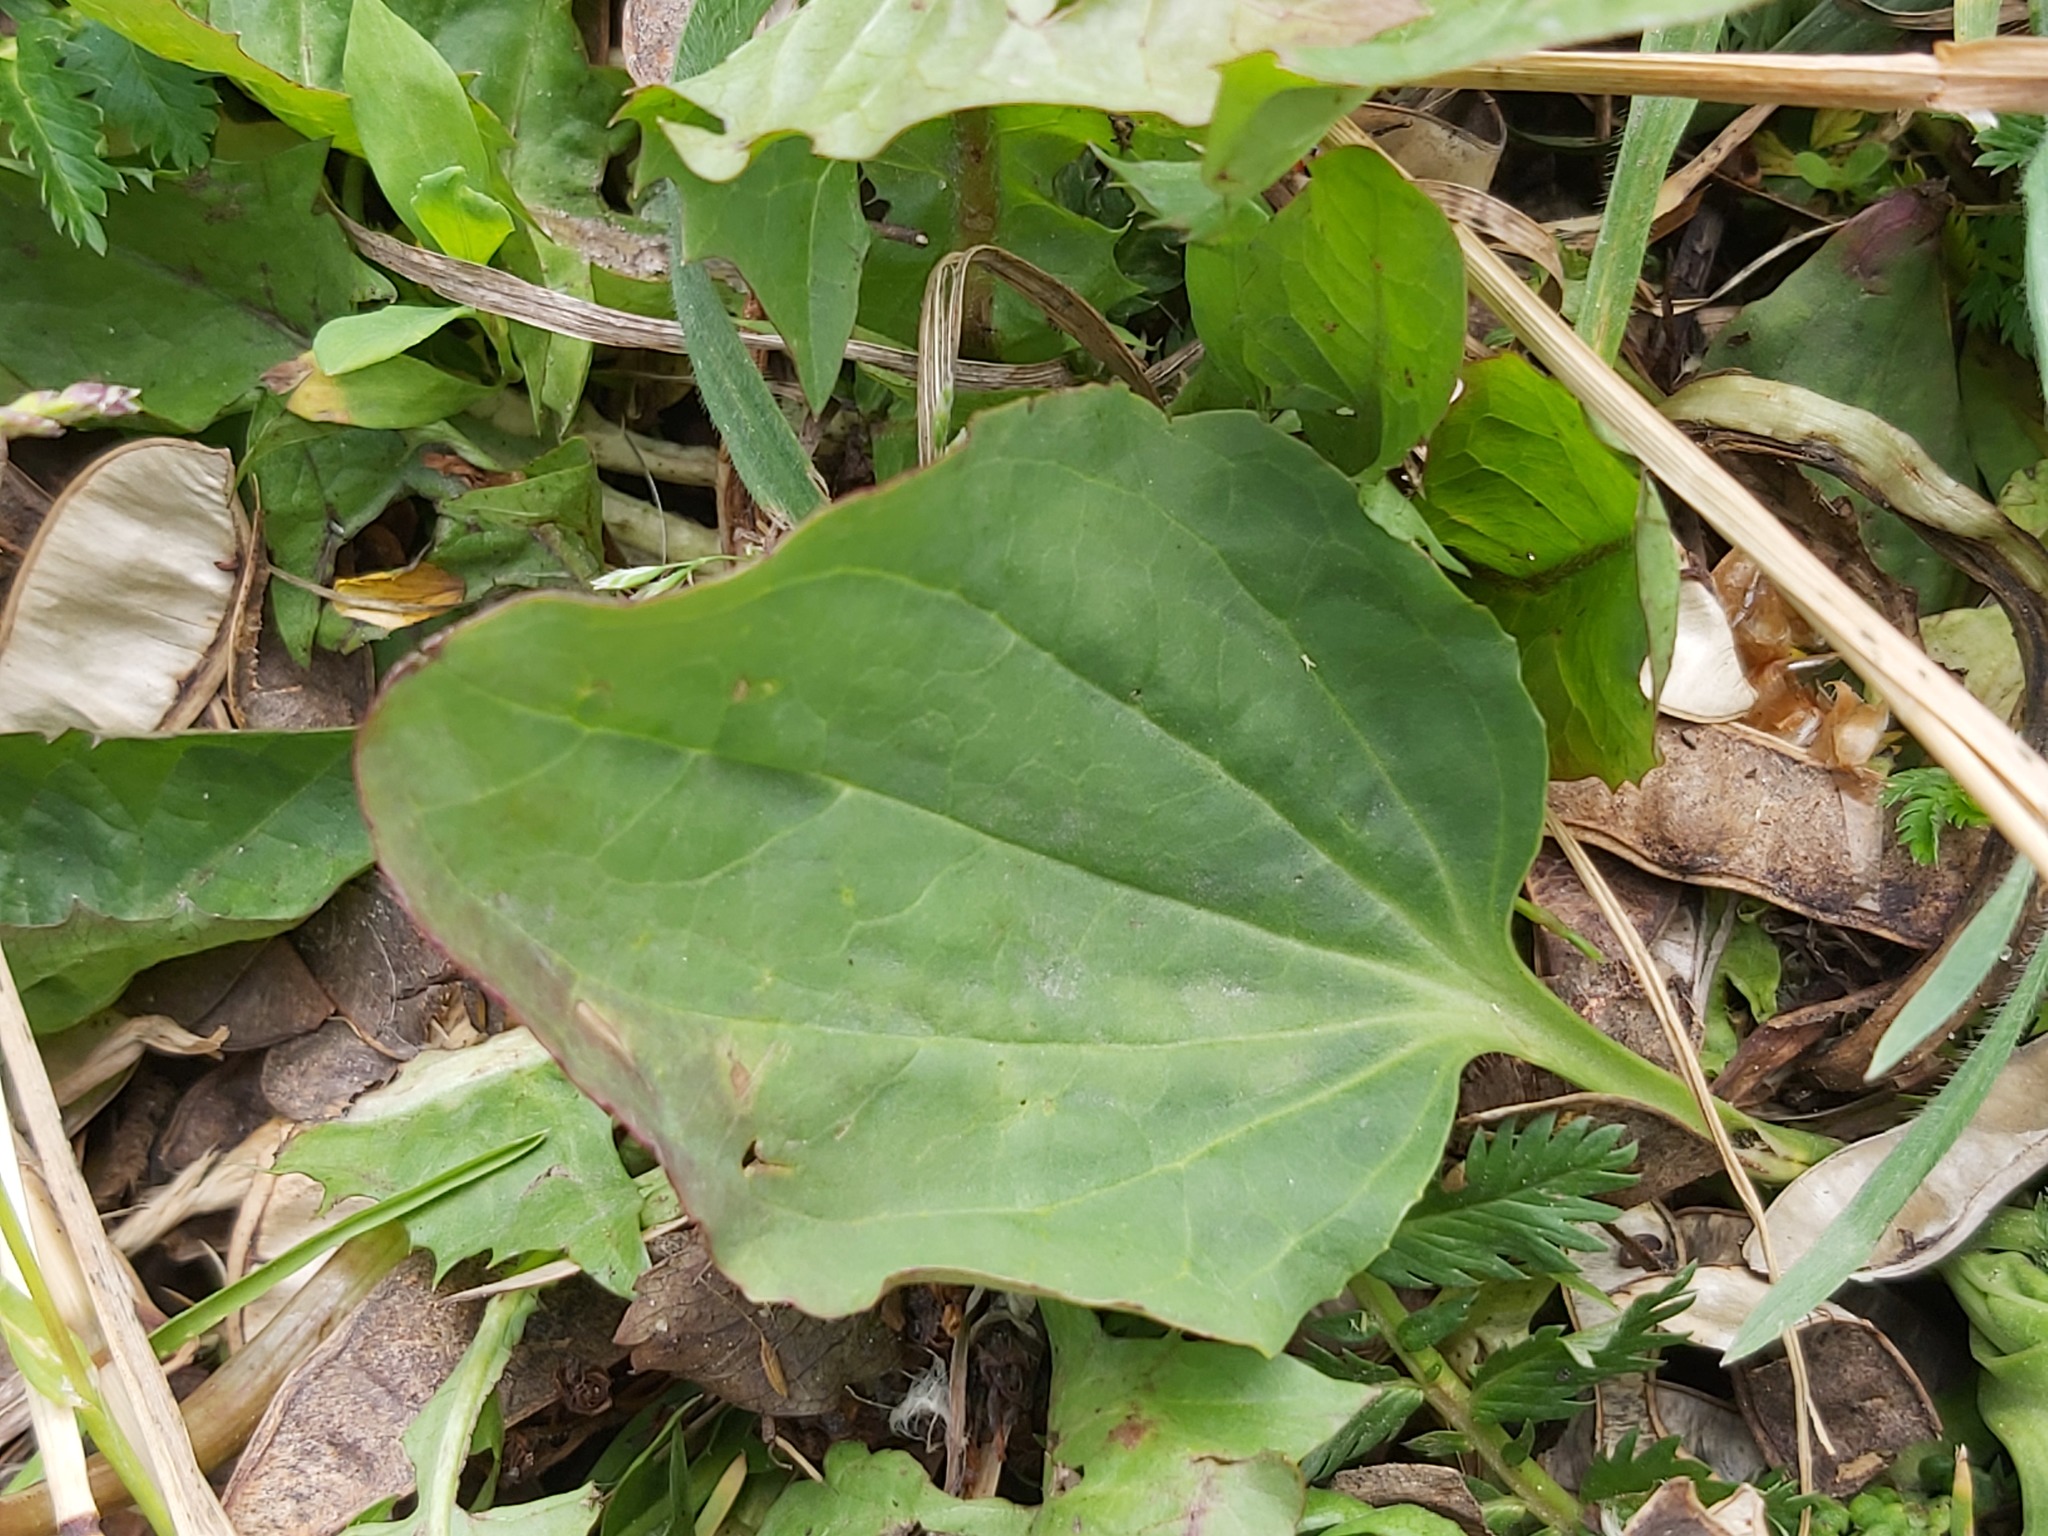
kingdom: Plantae
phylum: Tracheophyta
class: Magnoliopsida
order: Lamiales
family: Plantaginaceae
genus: Plantago
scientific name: Plantago major
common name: Common plantain
